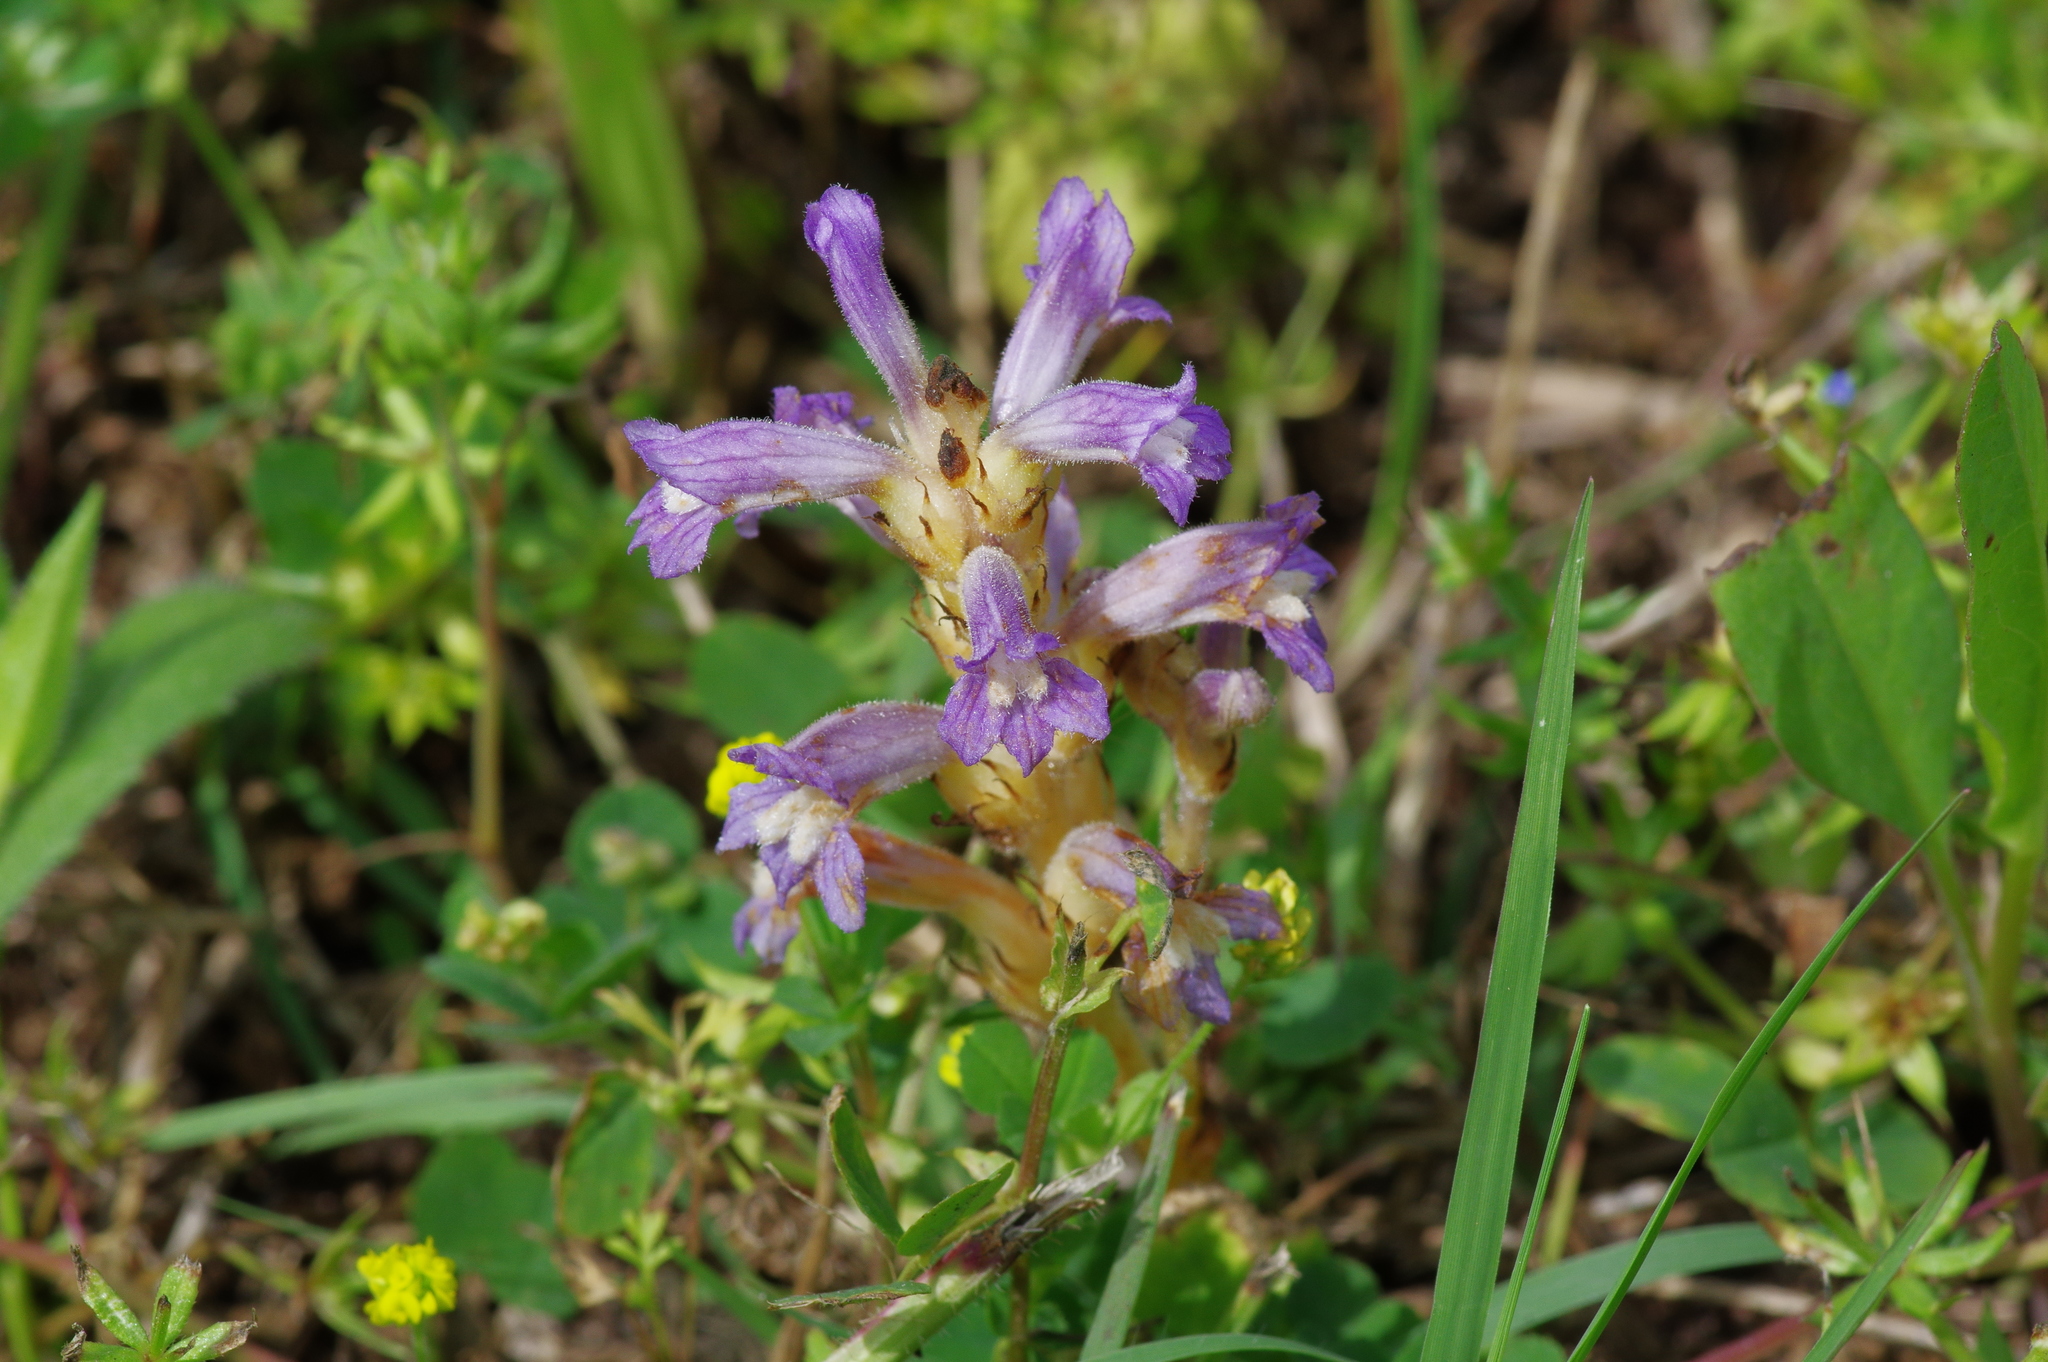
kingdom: Plantae
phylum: Tracheophyta
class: Magnoliopsida
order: Lamiales
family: Orobanchaceae
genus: Phelipanche
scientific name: Phelipanche mutelii
